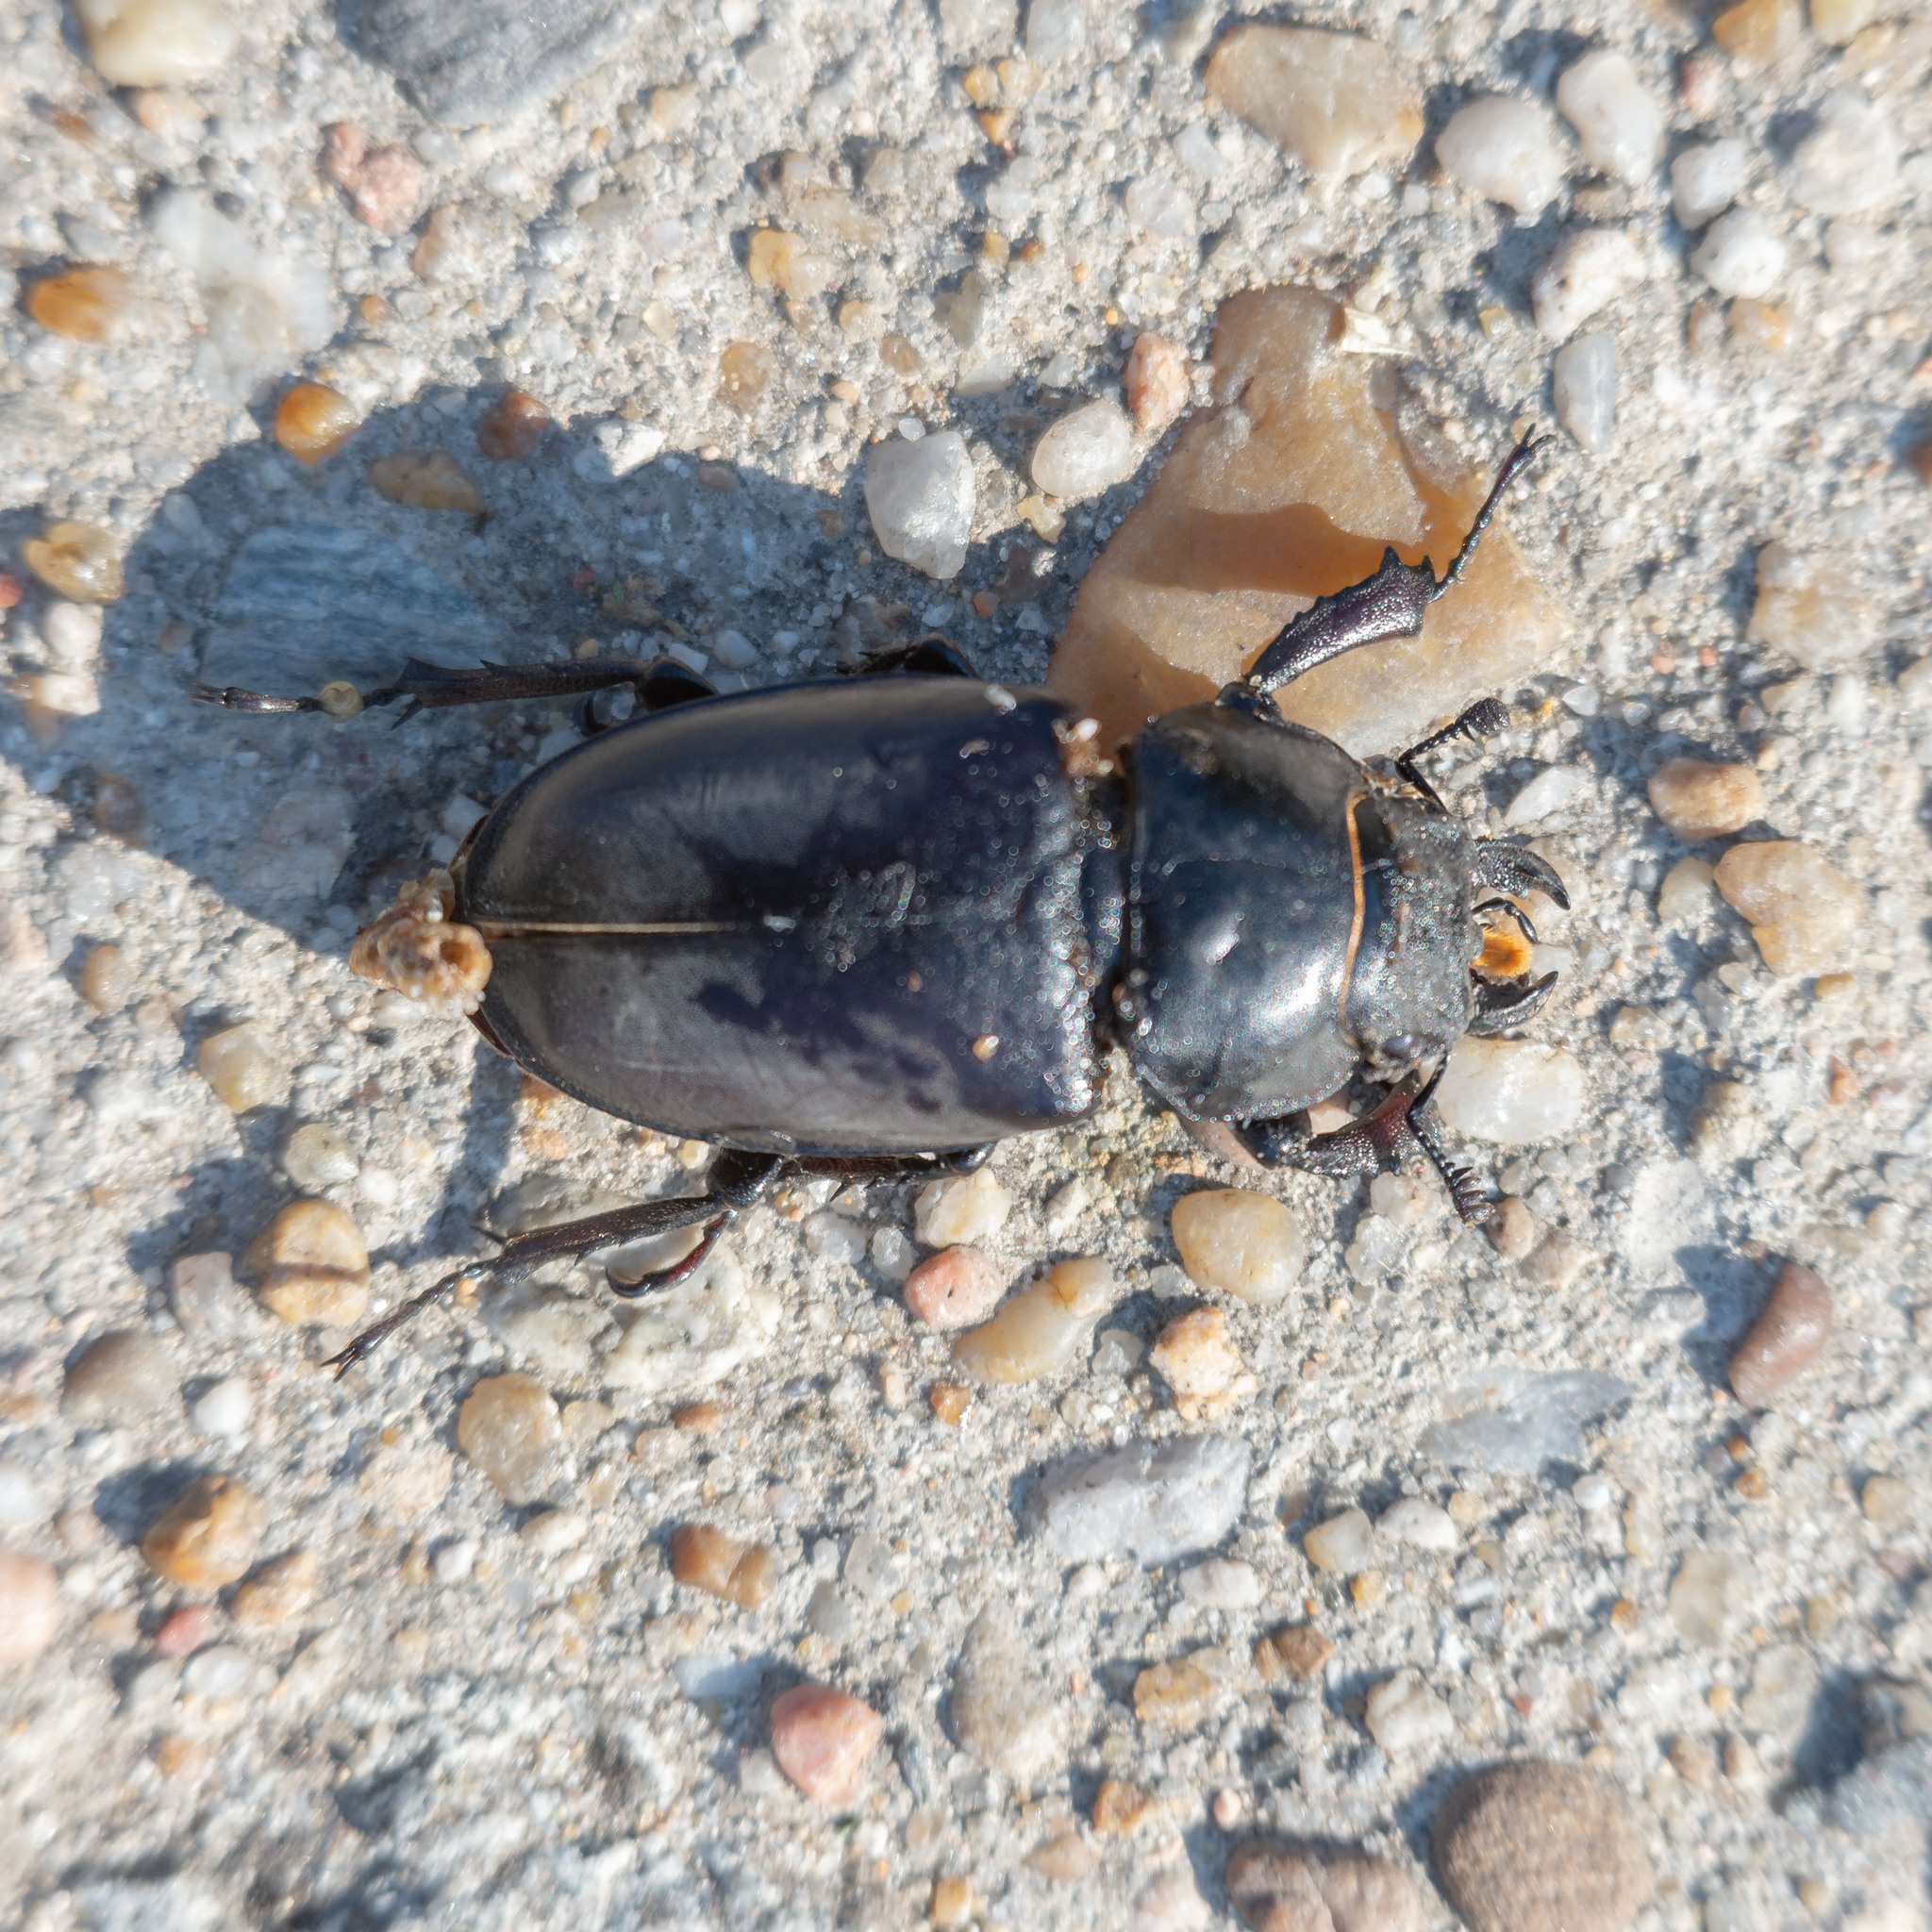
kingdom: Animalia
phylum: Arthropoda
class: Insecta
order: Coleoptera
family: Lucanidae
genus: Lucanus
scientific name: Lucanus cervus
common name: Stag beetle
